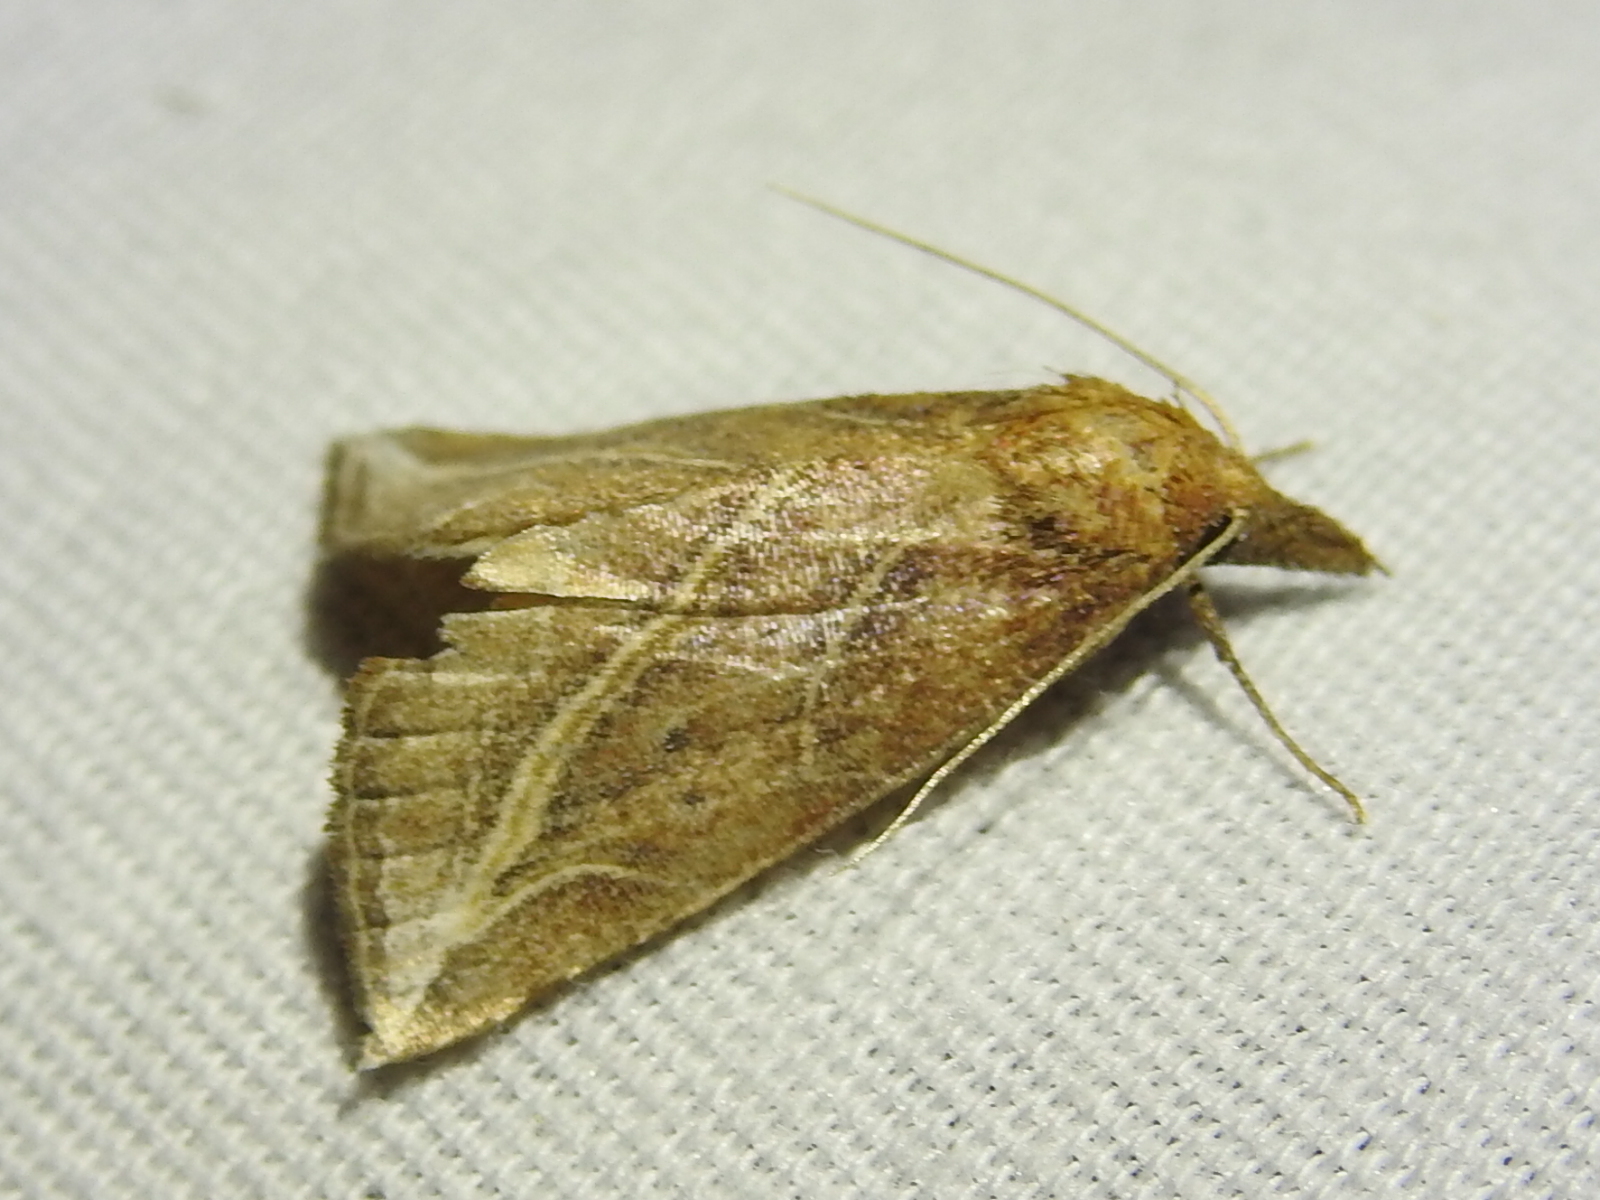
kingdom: Animalia
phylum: Arthropoda
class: Insecta
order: Lepidoptera
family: Erebidae
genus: Phyprosopus
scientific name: Phyprosopus callitrichoides
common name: Curved-lined owlet
